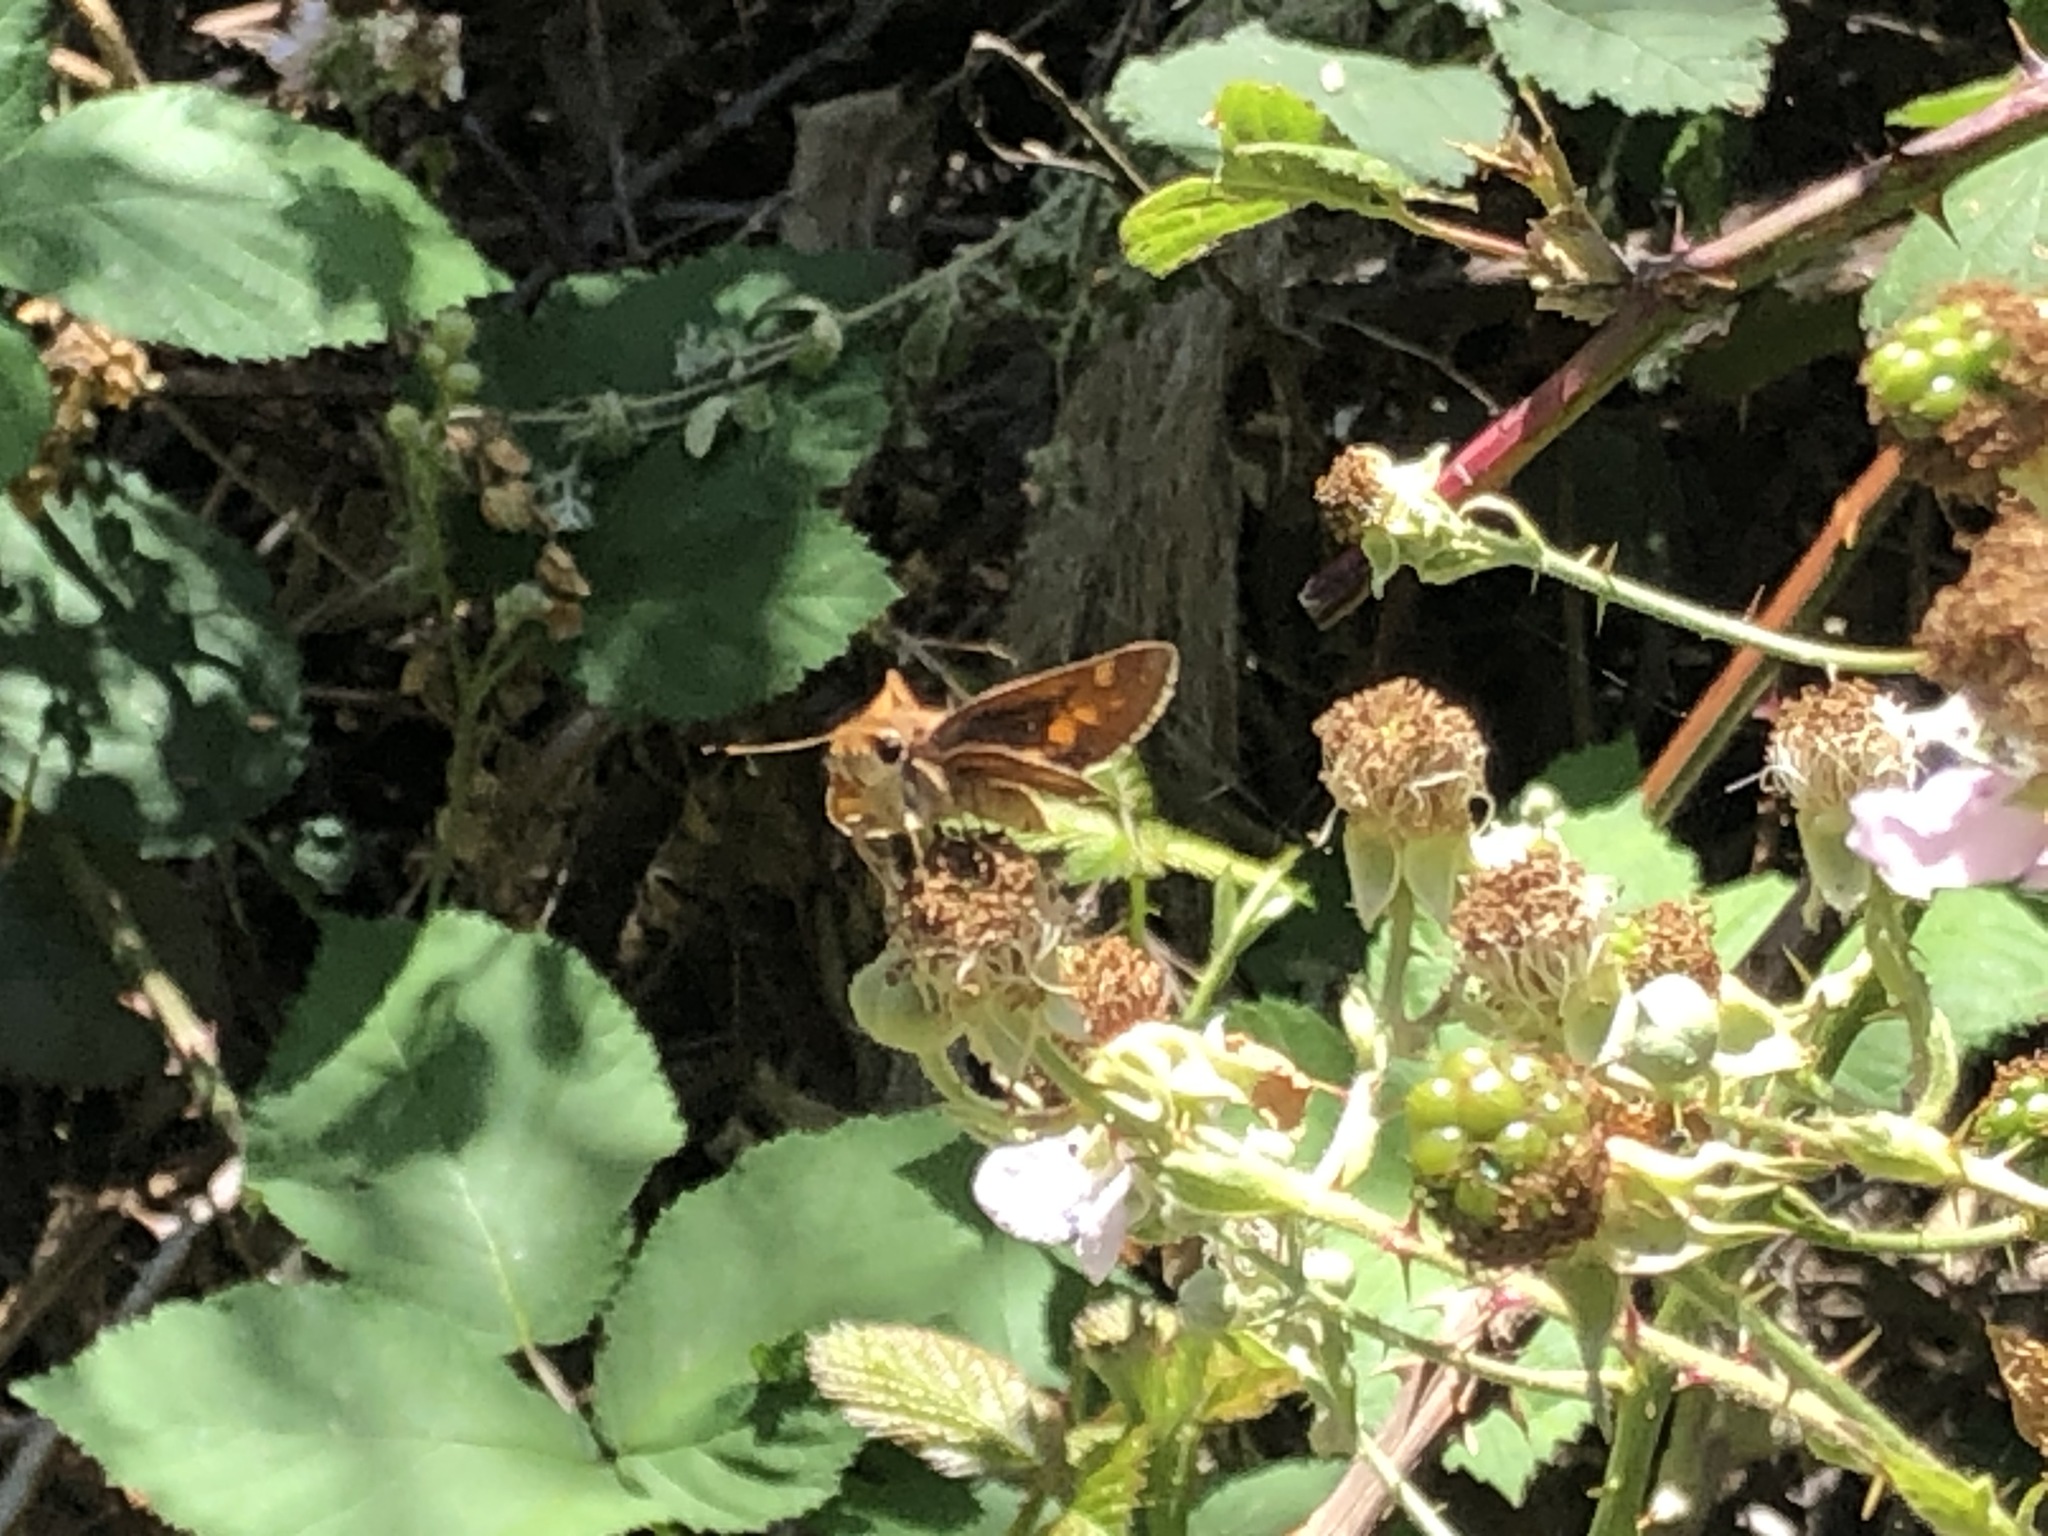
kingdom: Animalia
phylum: Arthropoda
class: Insecta
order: Lepidoptera
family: Hesperiidae
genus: Lon
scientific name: Lon melane
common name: Umber skipper
